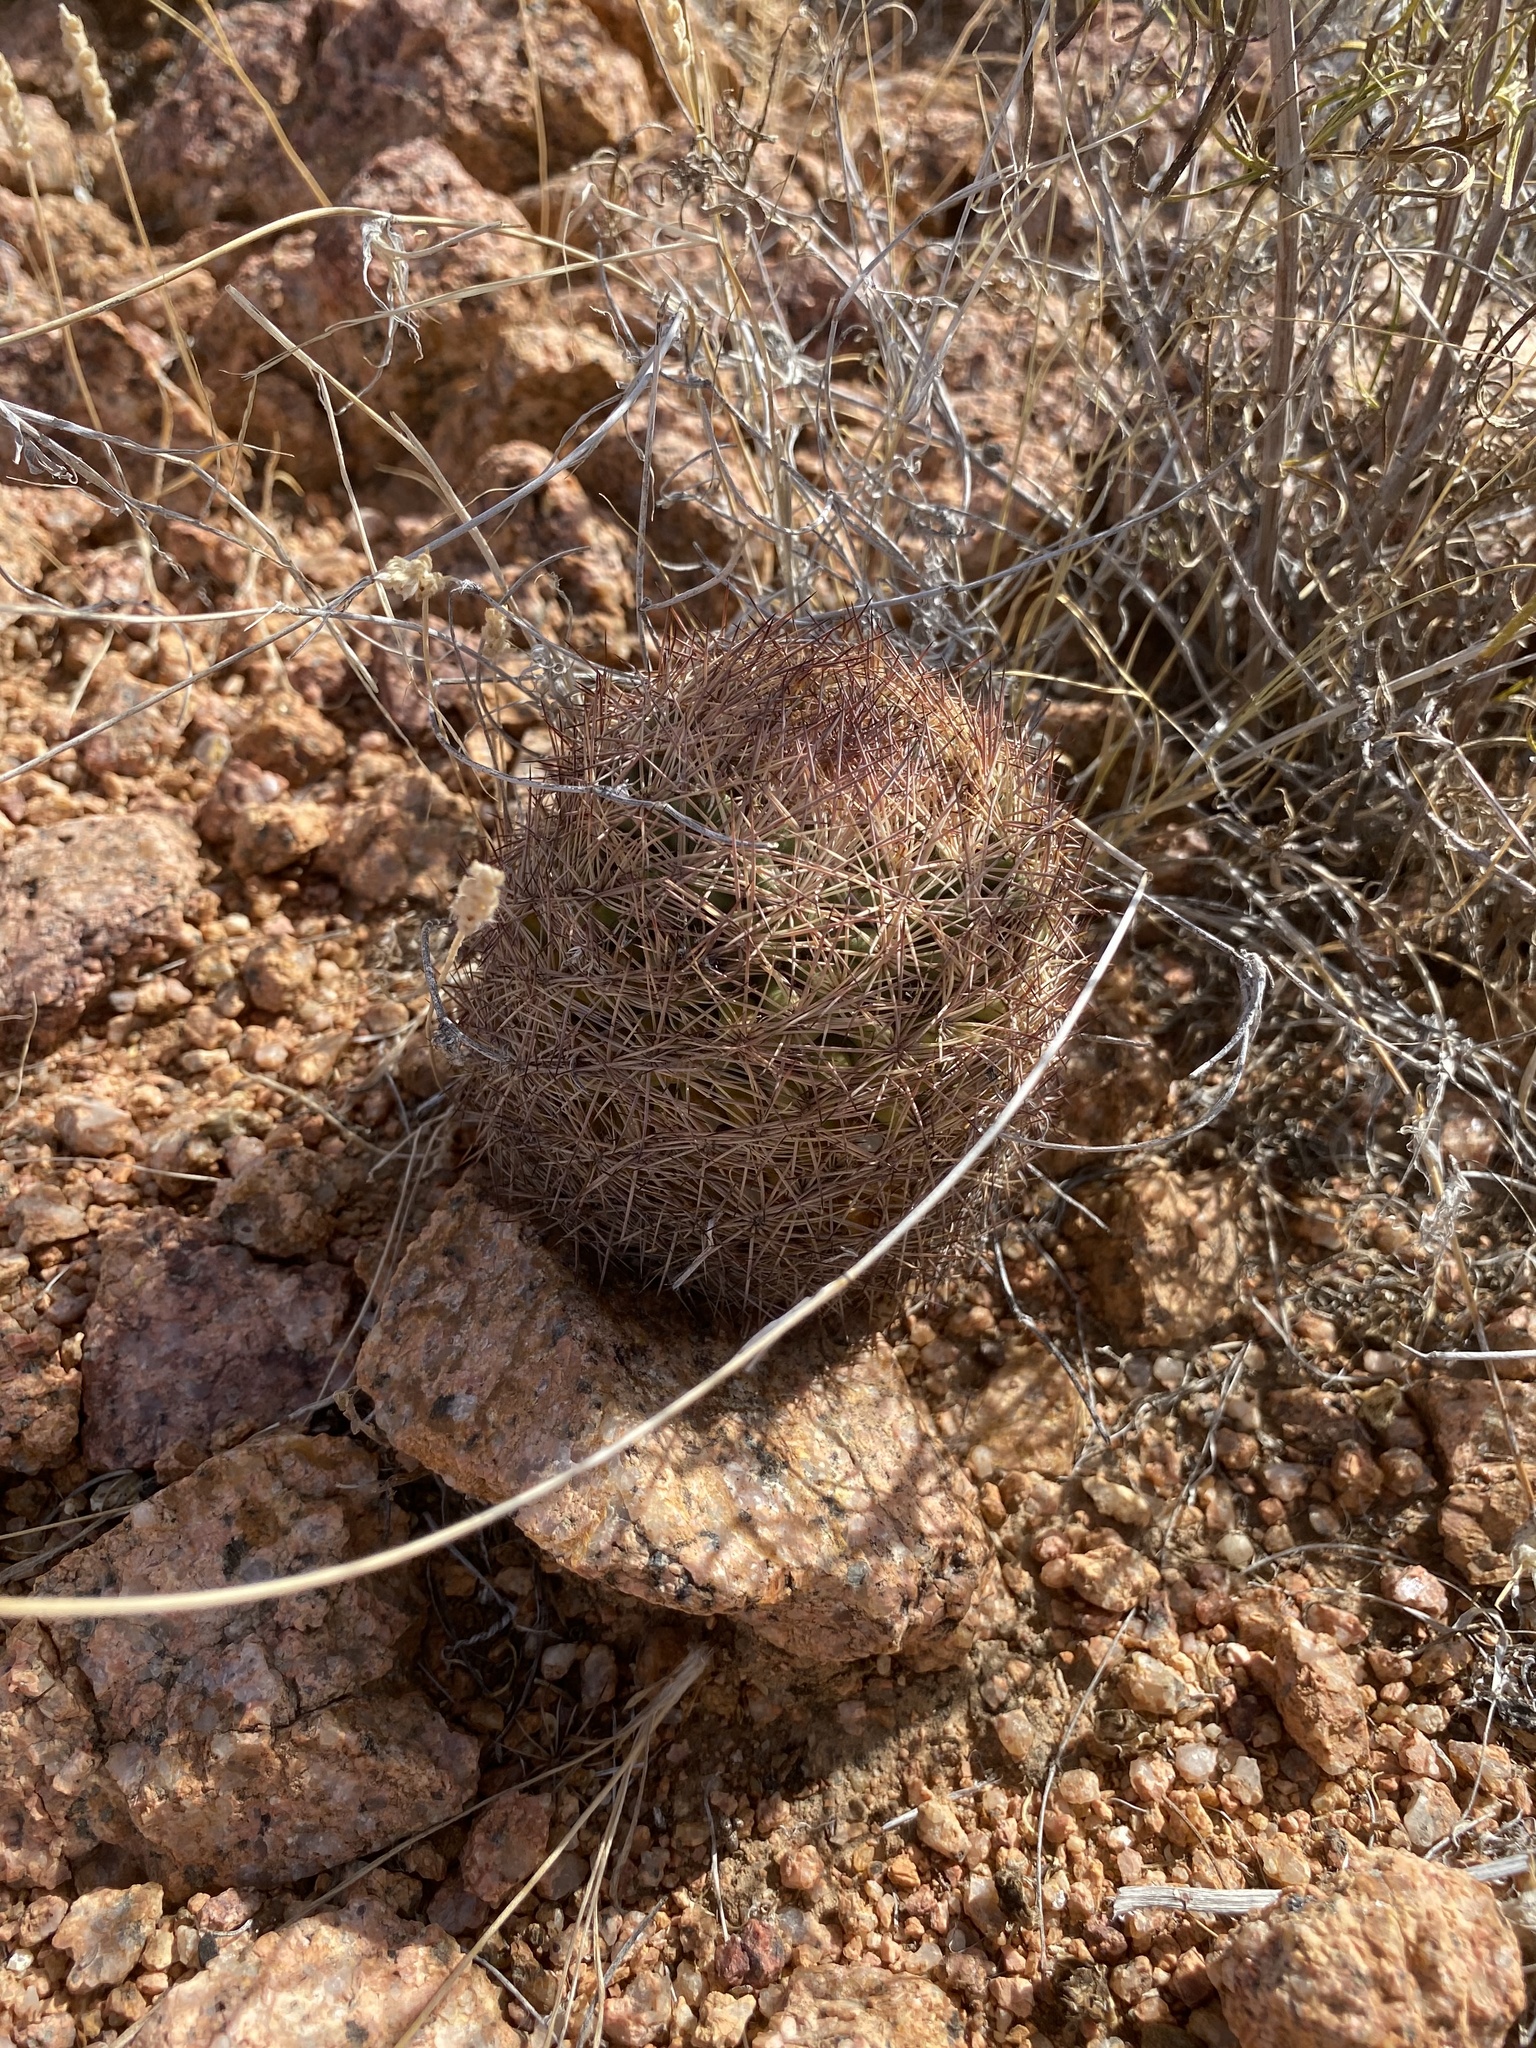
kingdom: Plantae
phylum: Tracheophyta
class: Magnoliopsida
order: Caryophyllales
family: Cactaceae
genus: Sclerocactus
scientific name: Sclerocactus intertextus
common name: White fish-hook cactus
